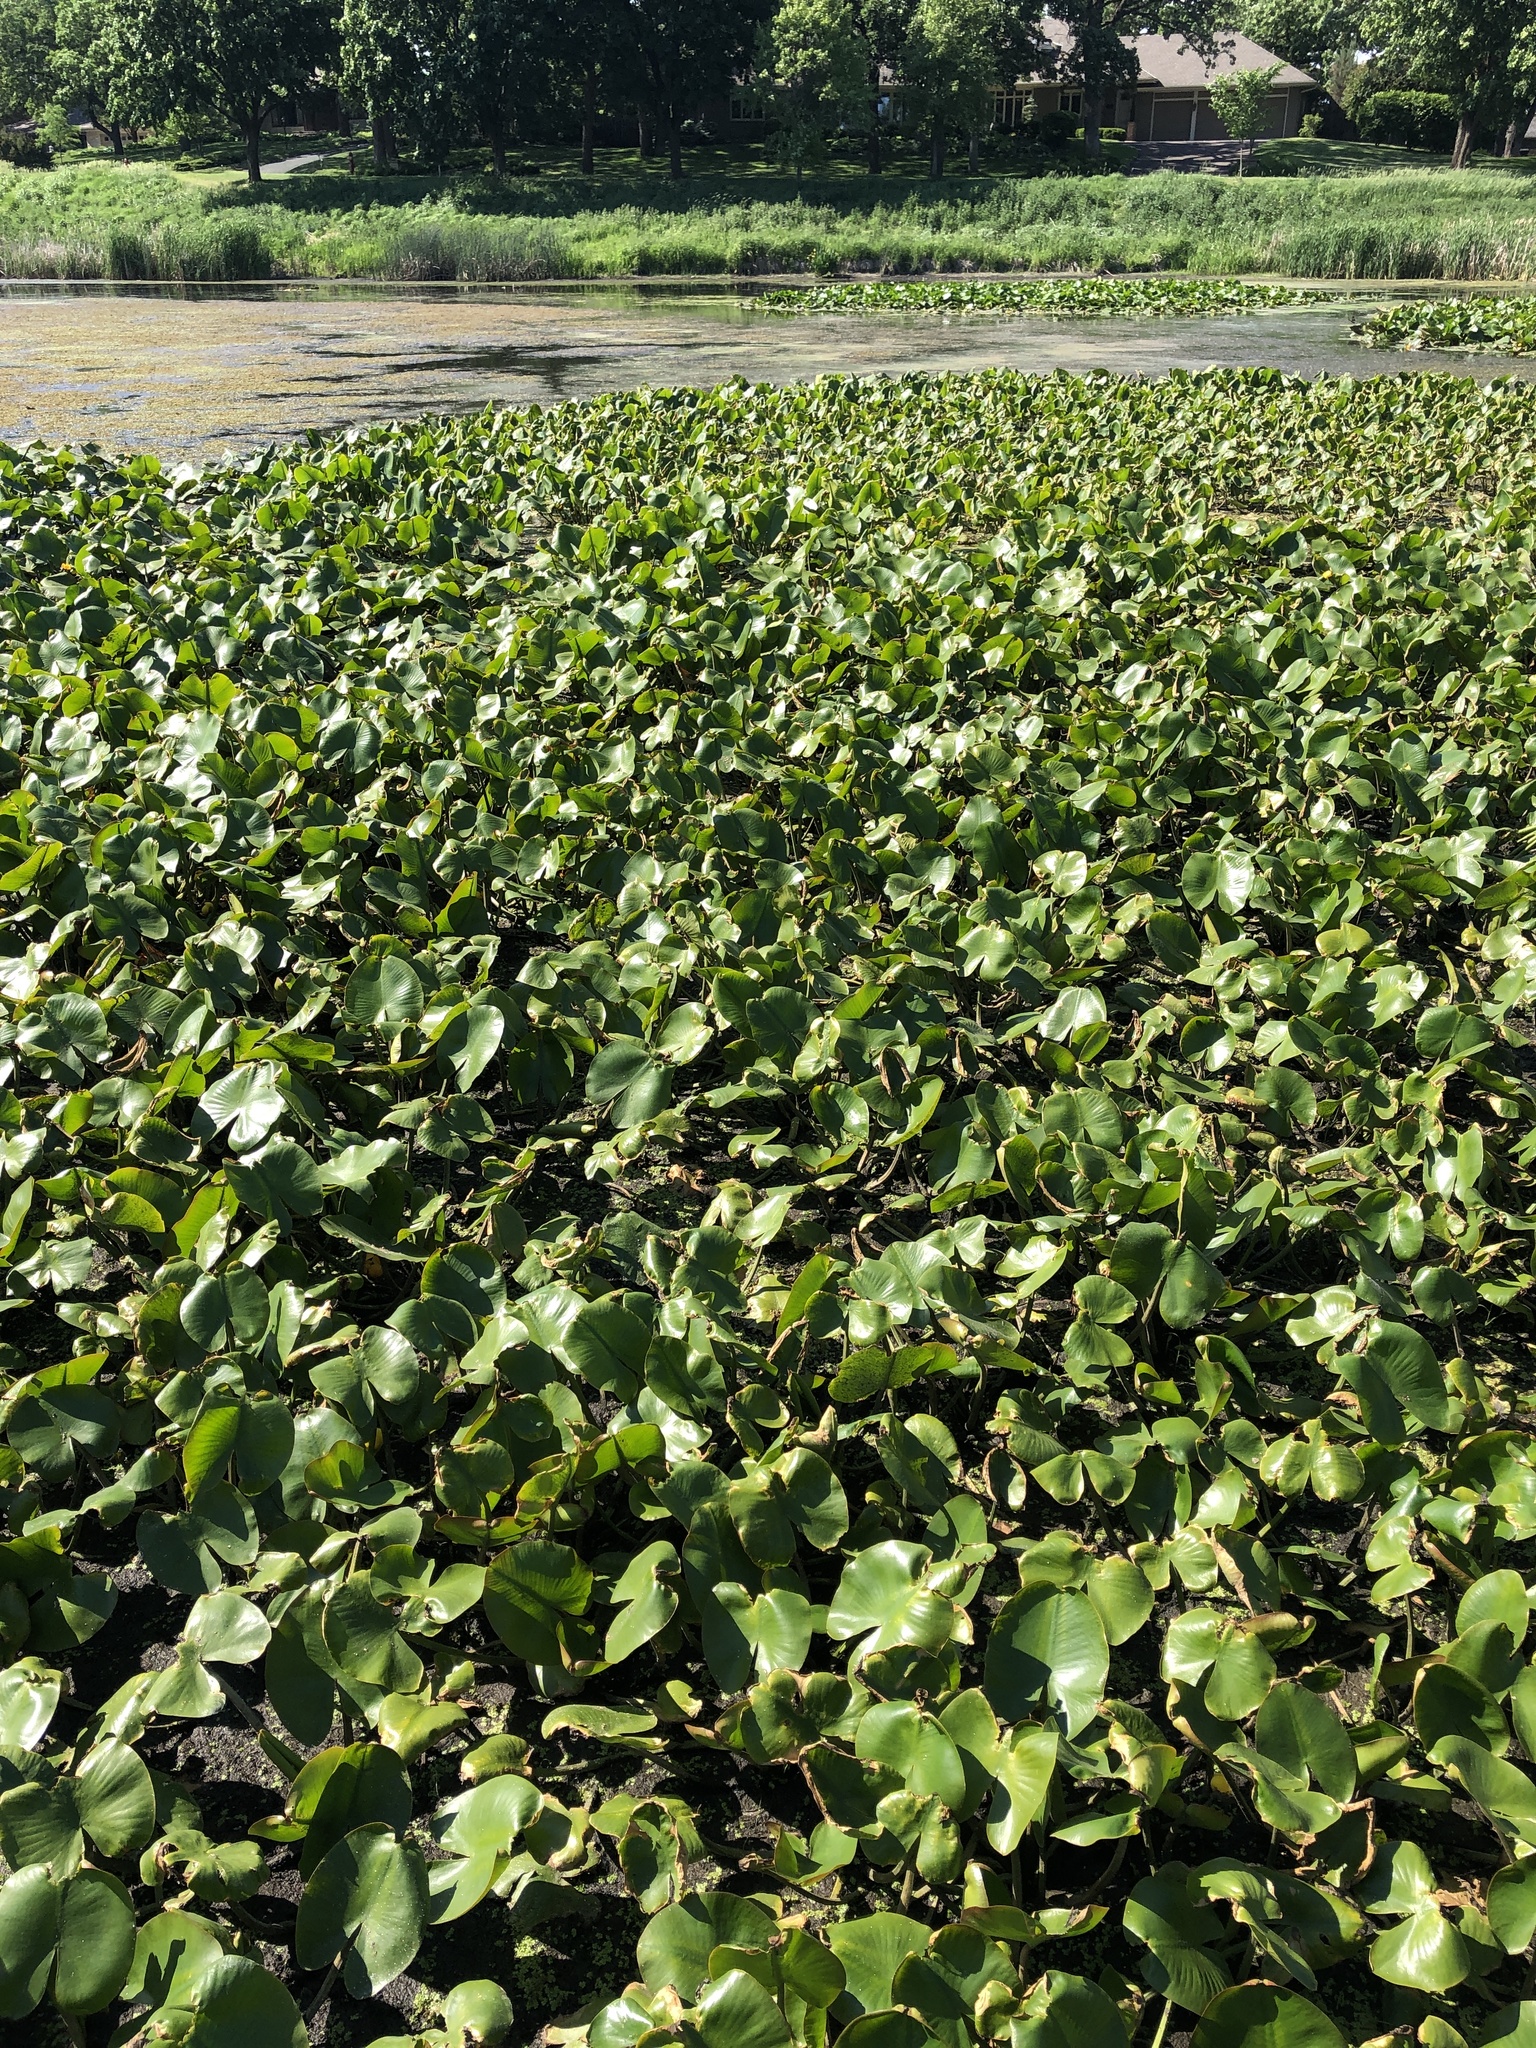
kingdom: Plantae
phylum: Tracheophyta
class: Magnoliopsida
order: Nymphaeales
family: Nymphaeaceae
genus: Nuphar
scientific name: Nuphar variegata
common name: Beaver-root
